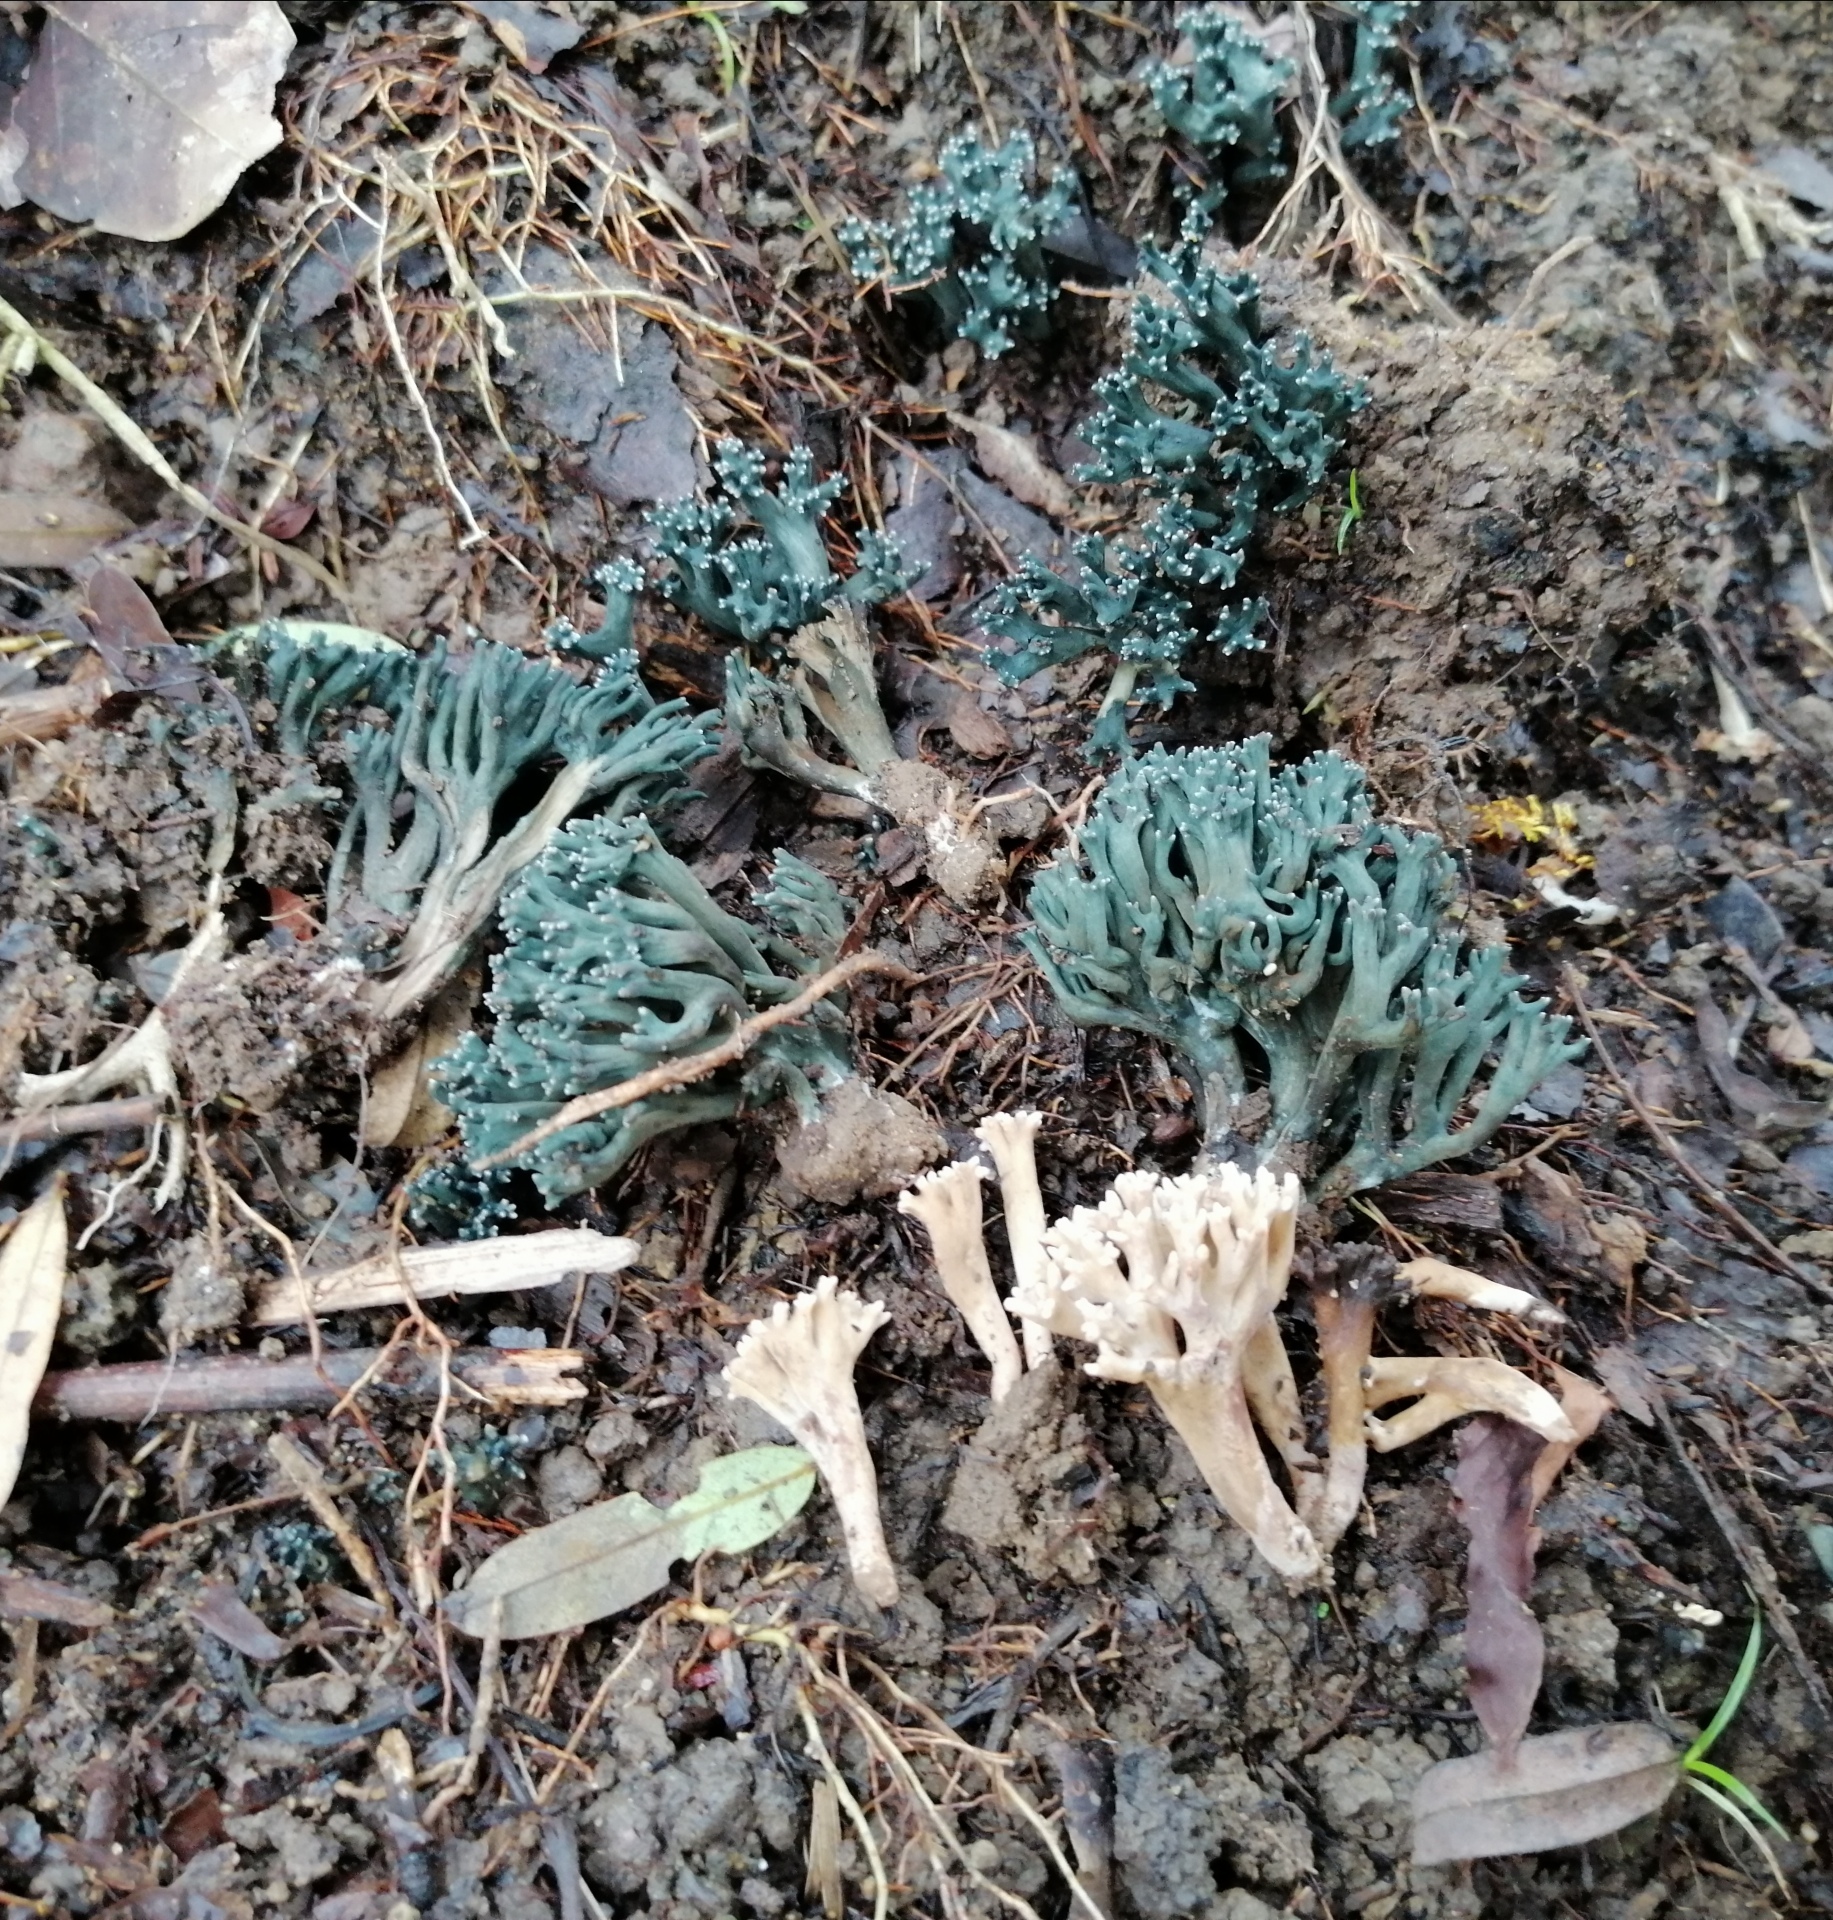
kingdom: Fungi
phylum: Basidiomycota
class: Agaricomycetes
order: Gomphales
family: Gomphaceae
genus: Phaeoclavulina
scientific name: Phaeoclavulina cyanocephala
